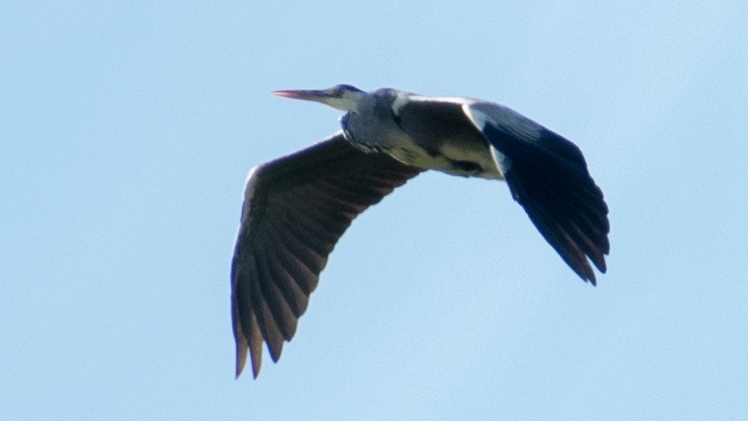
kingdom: Animalia
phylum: Chordata
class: Aves
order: Pelecaniformes
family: Ardeidae
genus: Ardea
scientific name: Ardea cinerea
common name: Grey heron
